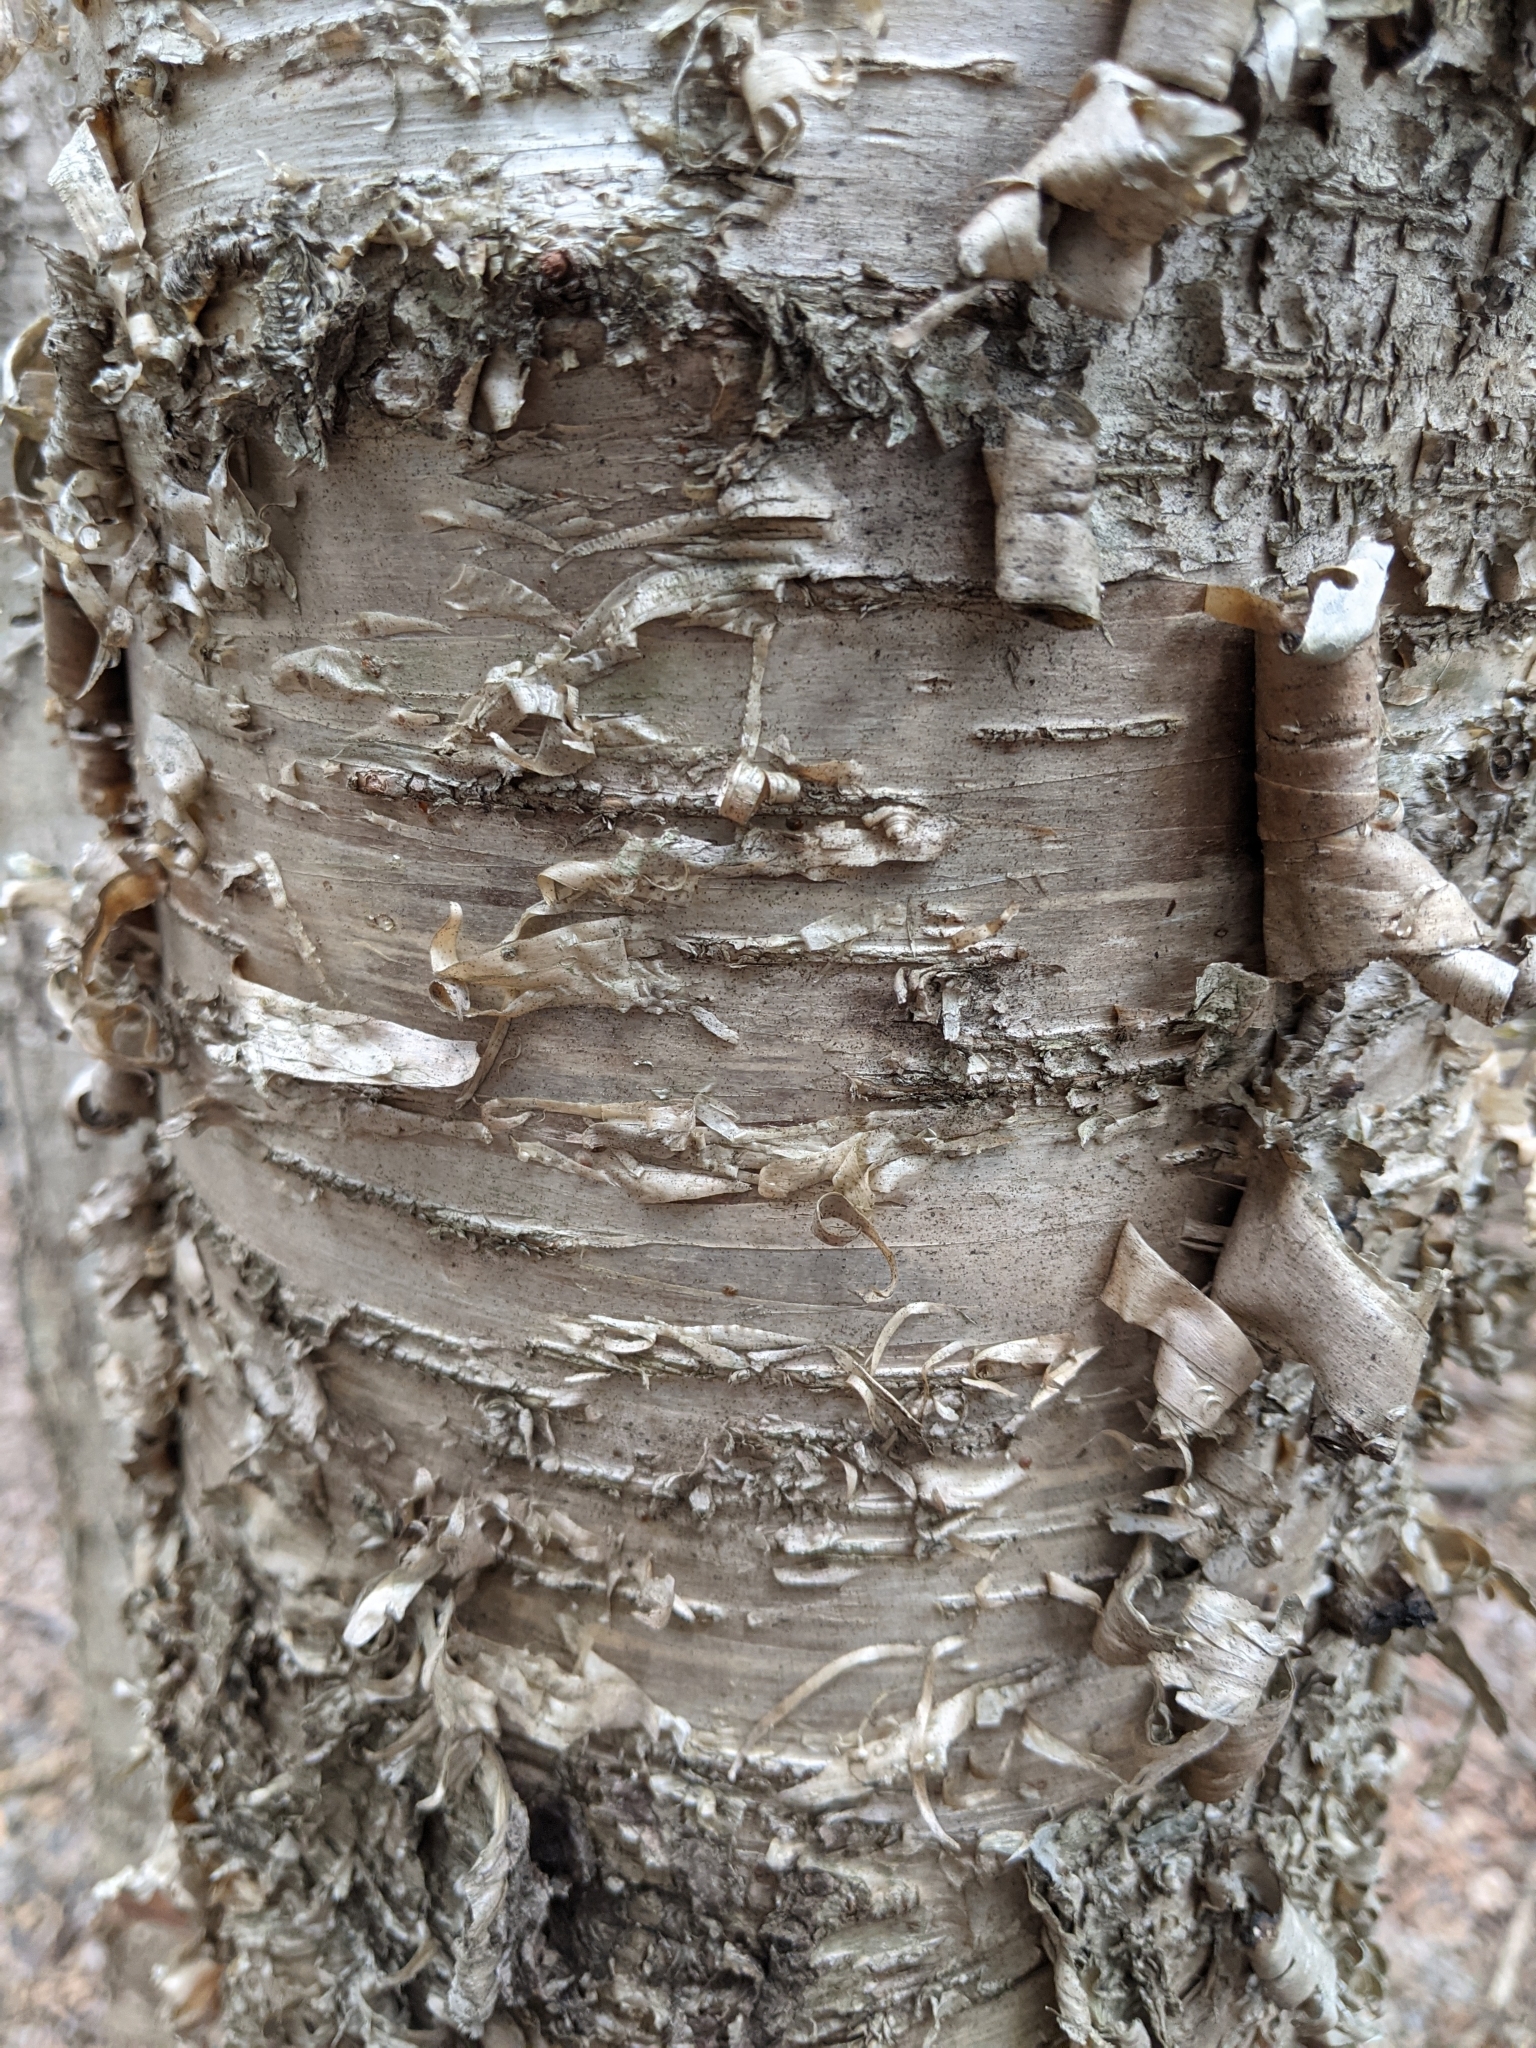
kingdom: Plantae
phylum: Tracheophyta
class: Magnoliopsida
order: Fagales
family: Betulaceae
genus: Betula
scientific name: Betula alleghaniensis
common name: Yellow birch
